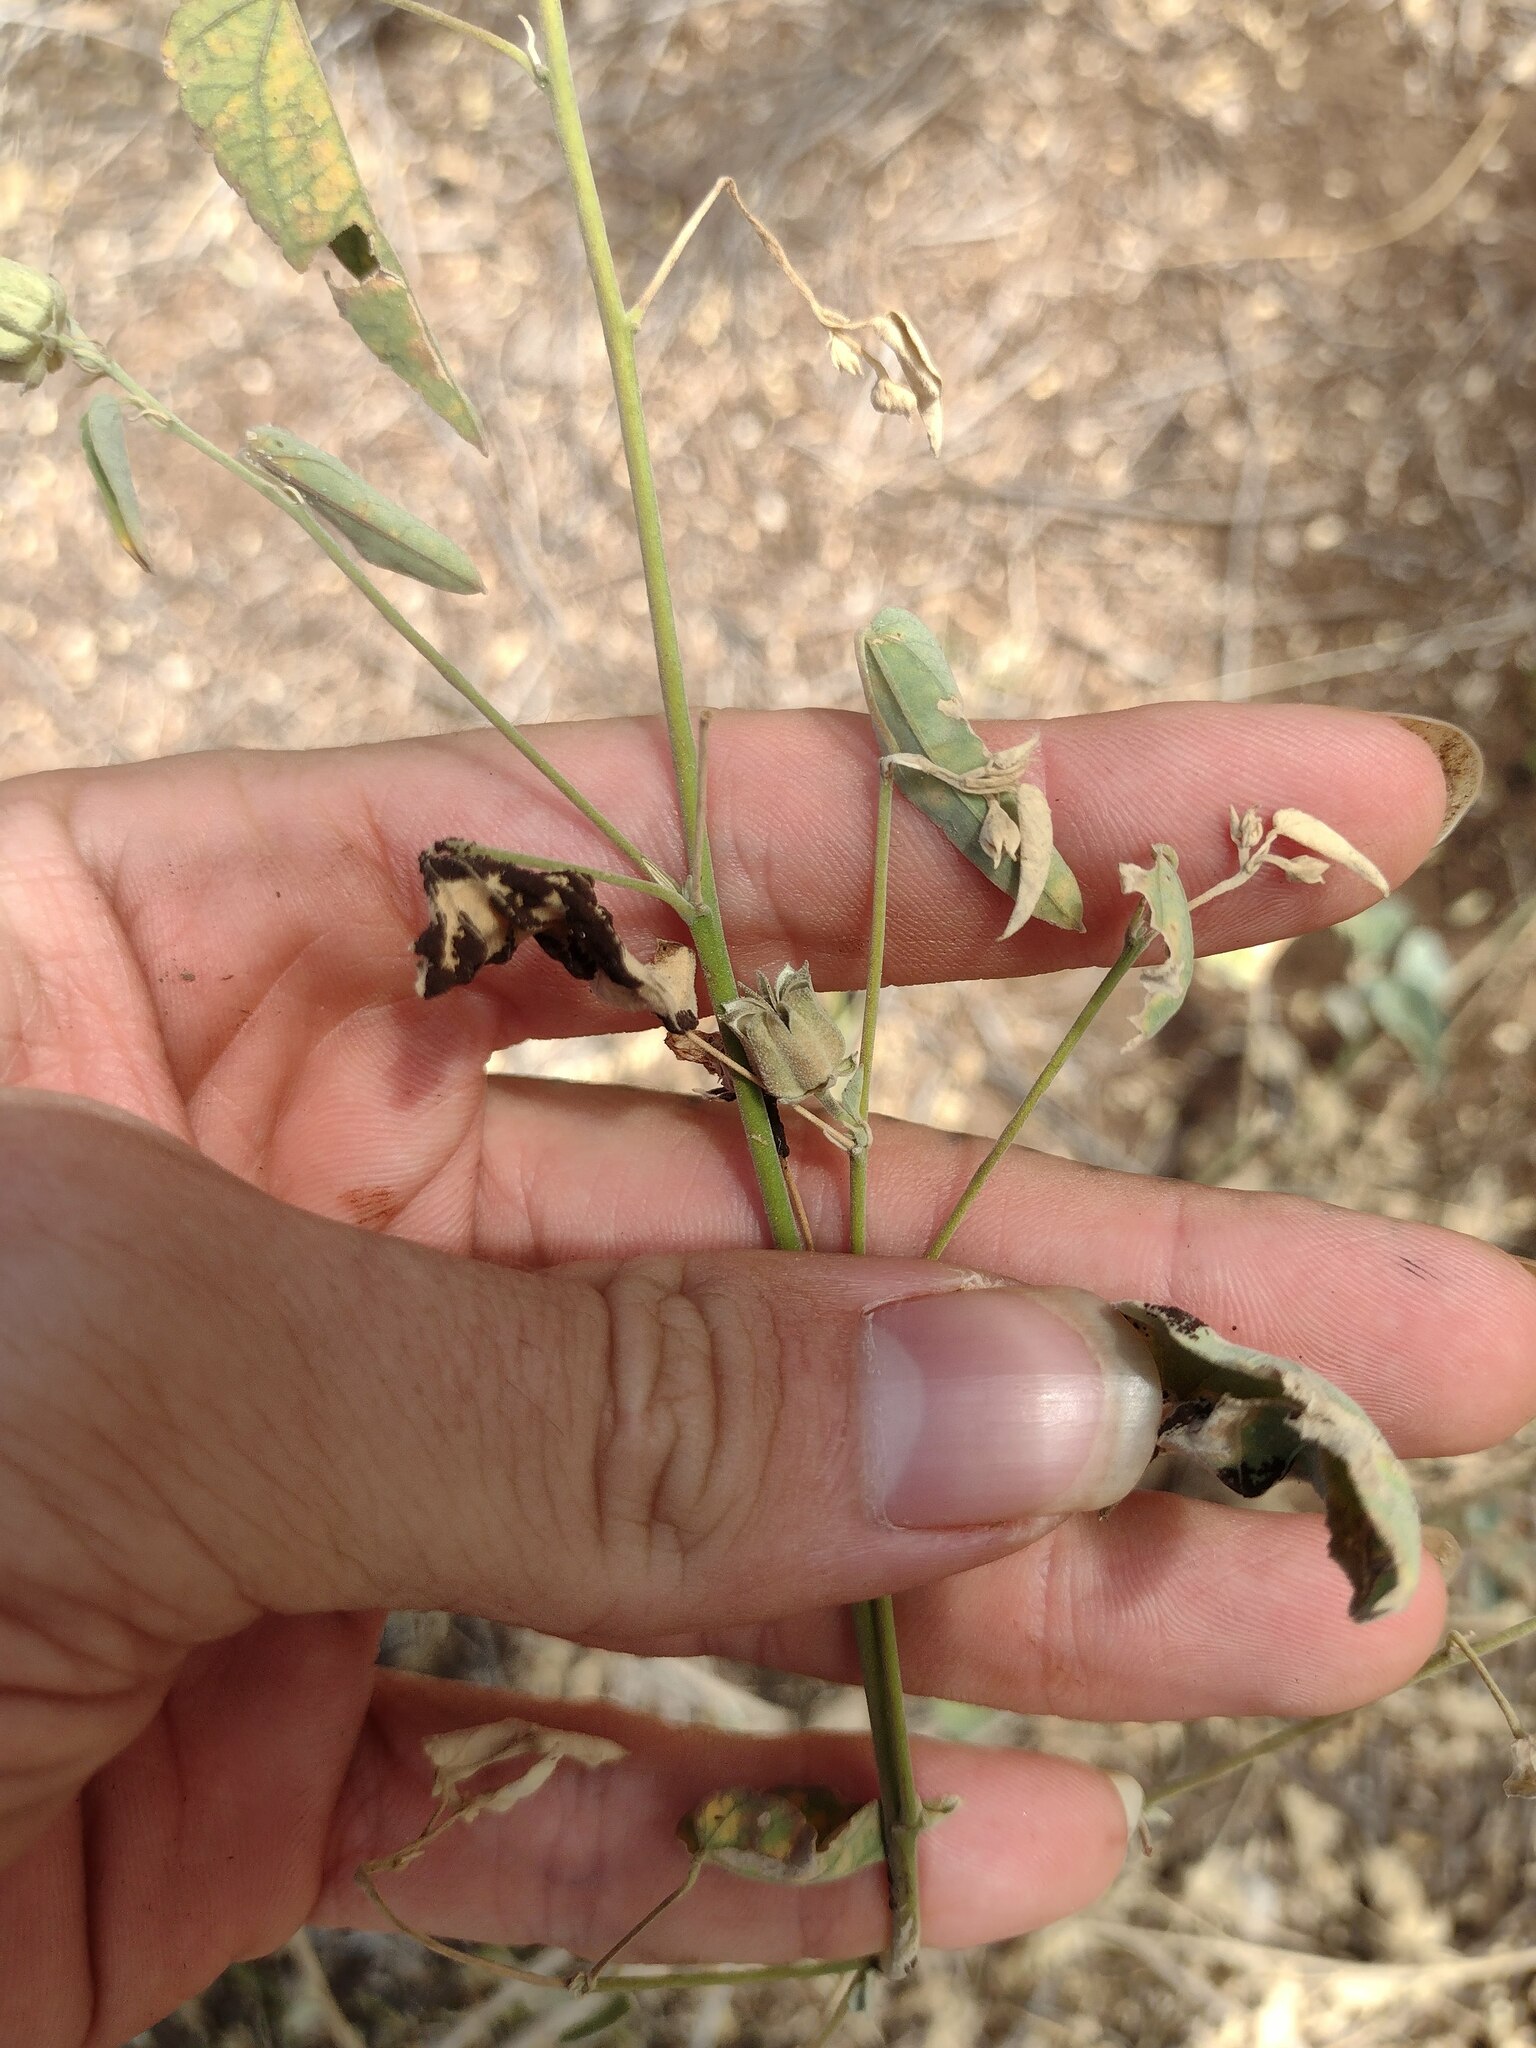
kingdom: Plantae
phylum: Tracheophyta
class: Magnoliopsida
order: Malvales
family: Malvaceae
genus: Abutilon
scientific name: Abutilon incanum
